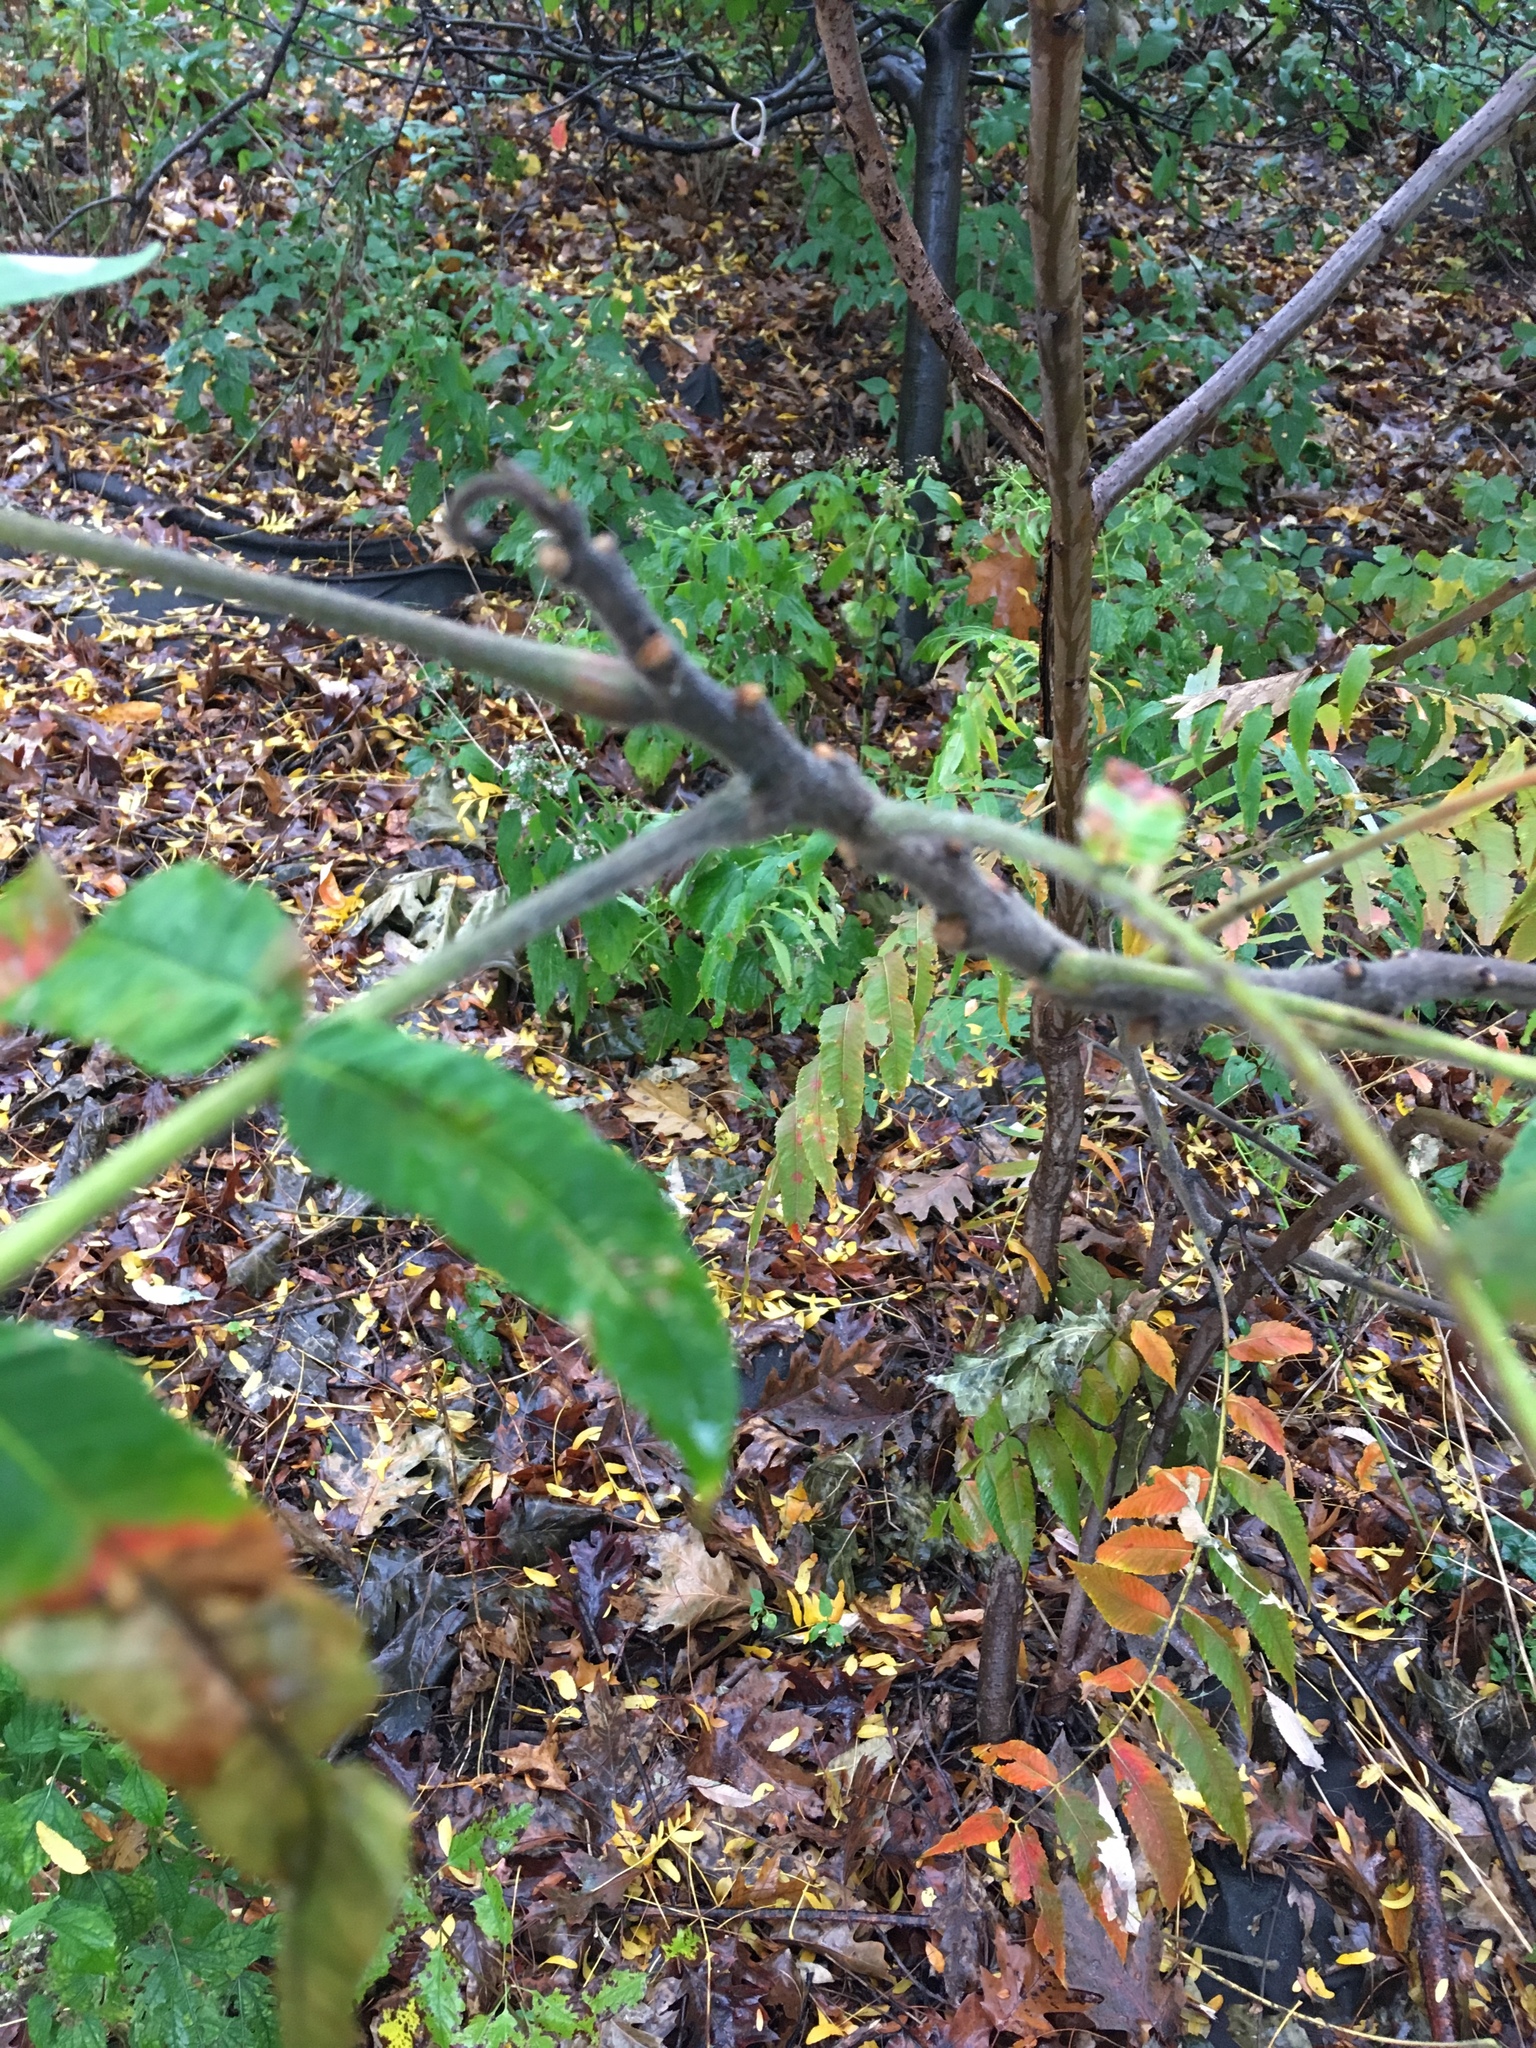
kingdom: Plantae
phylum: Tracheophyta
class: Magnoliopsida
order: Sapindales
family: Anacardiaceae
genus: Rhus
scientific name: Rhus typhina
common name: Staghorn sumac
